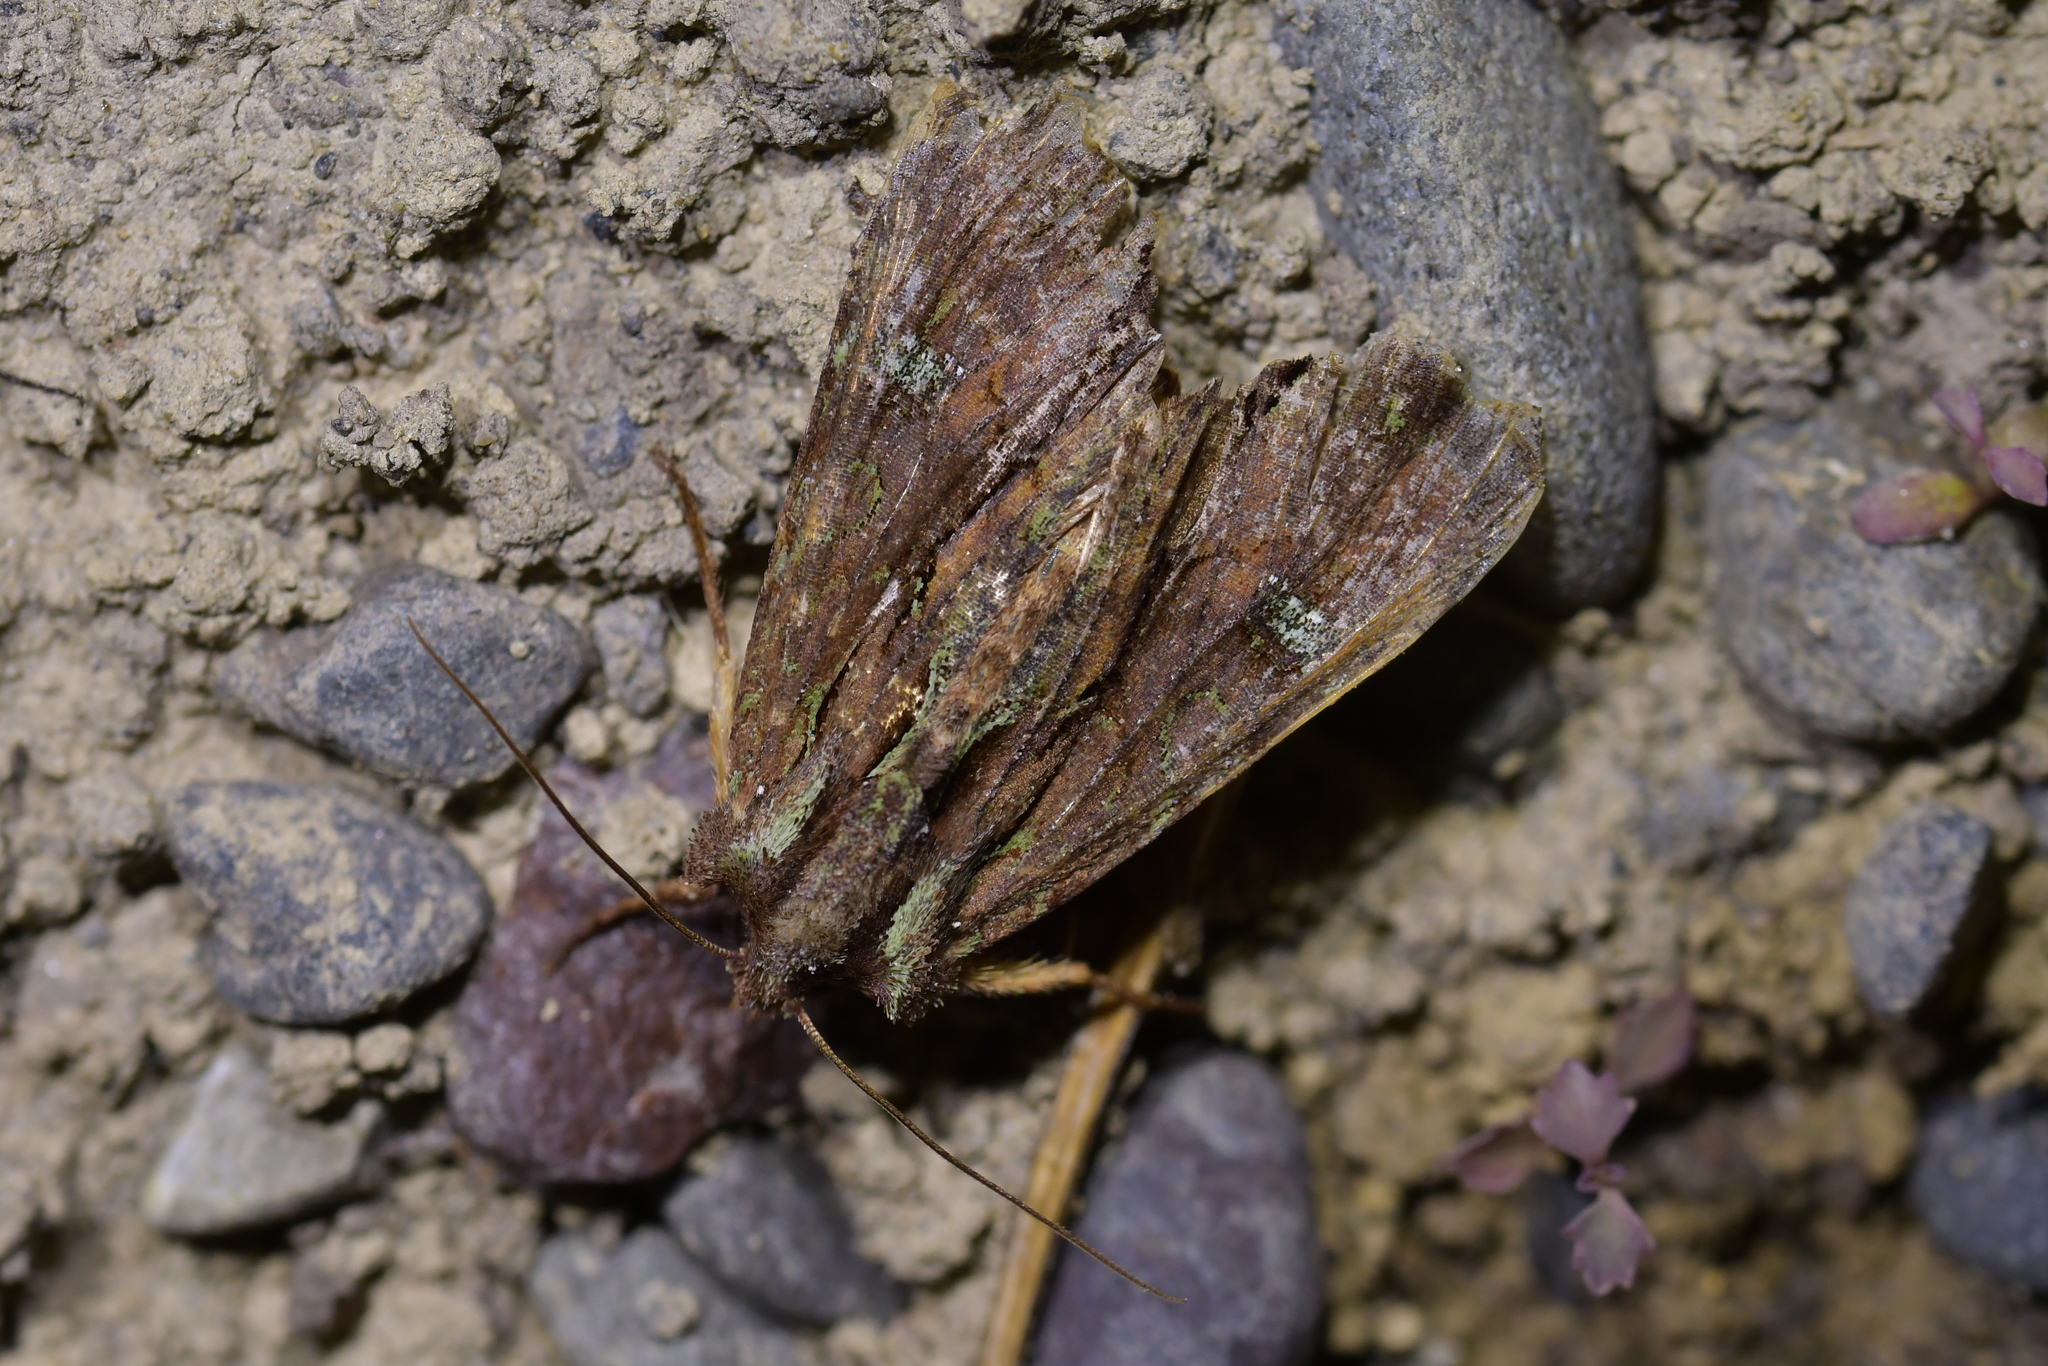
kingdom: Animalia
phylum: Arthropoda
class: Insecta
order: Lepidoptera
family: Noctuidae
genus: Meterana
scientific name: Meterana diatmeta
